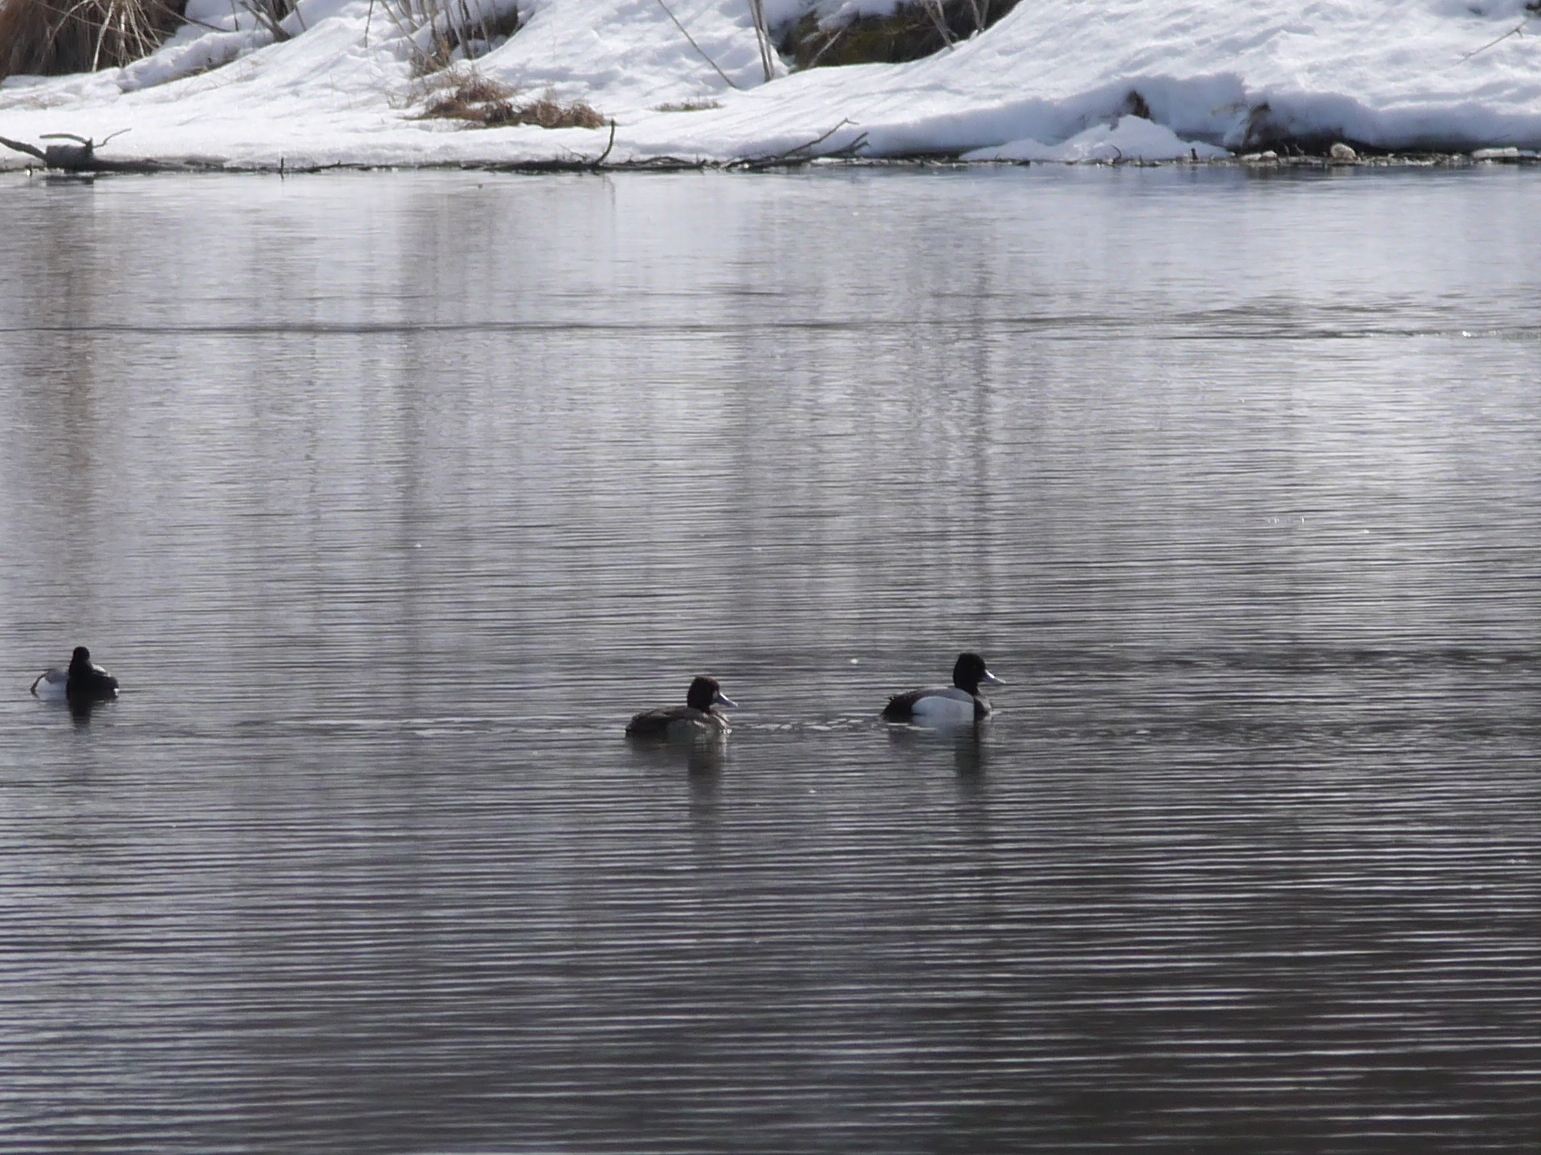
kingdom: Animalia
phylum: Chordata
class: Aves
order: Anseriformes
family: Anatidae
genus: Aythya
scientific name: Aythya affinis
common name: Lesser scaup
